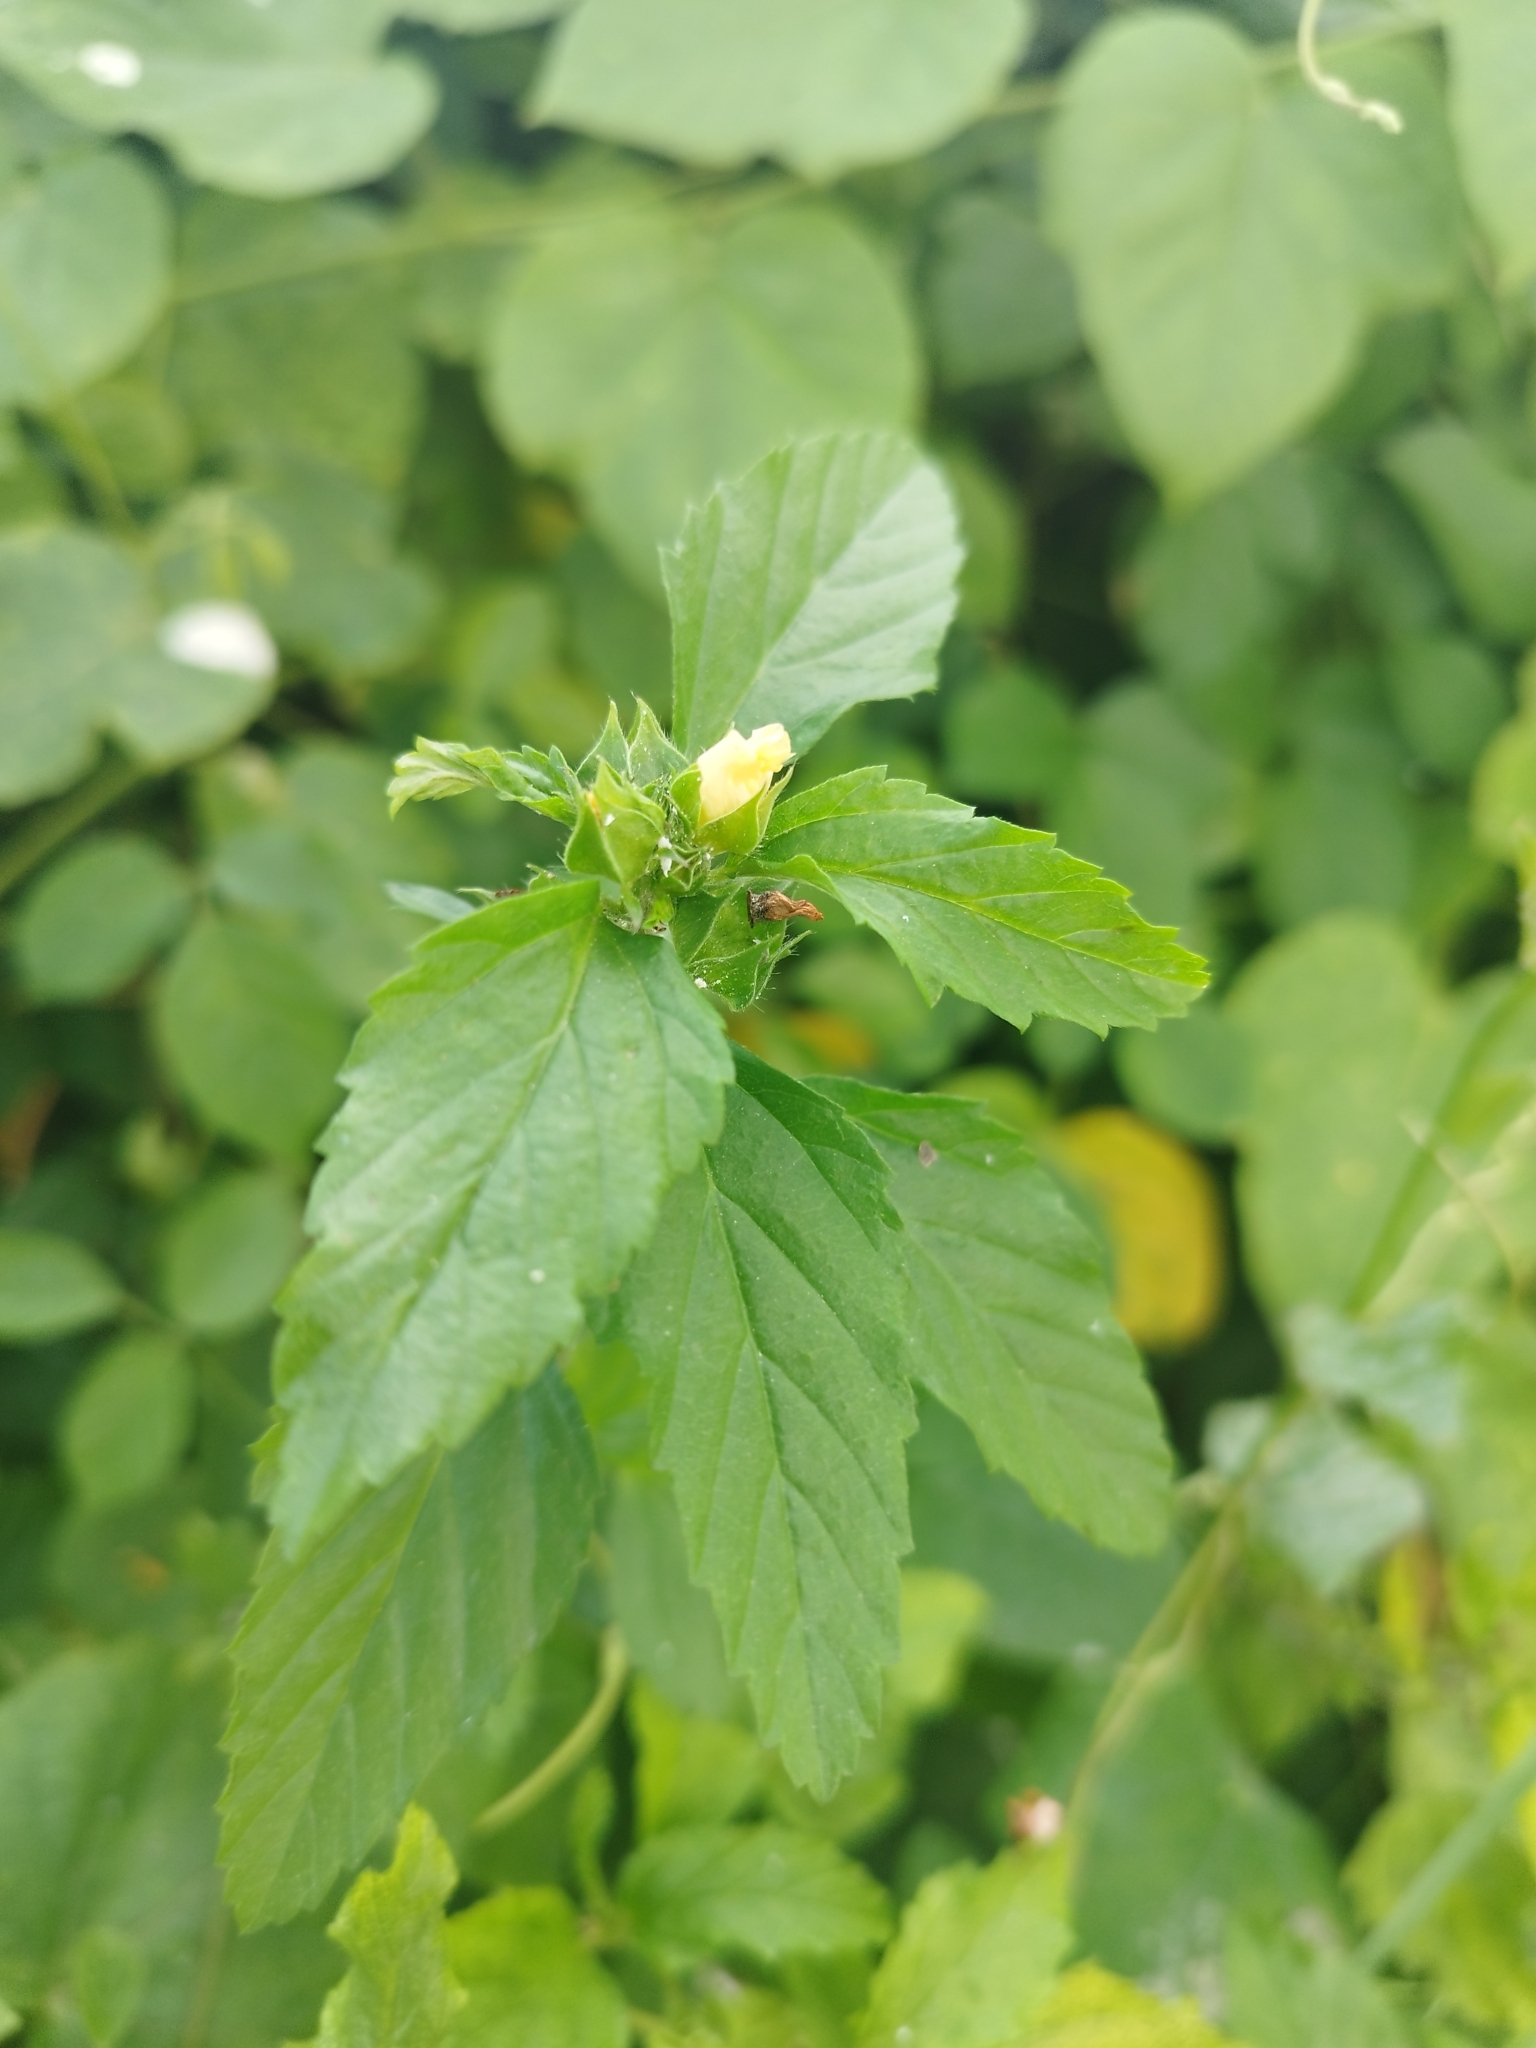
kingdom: Plantae
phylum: Tracheophyta
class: Magnoliopsida
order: Malvales
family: Malvaceae
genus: Malvastrum
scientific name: Malvastrum coromandelianum
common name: Threelobe false mallow
